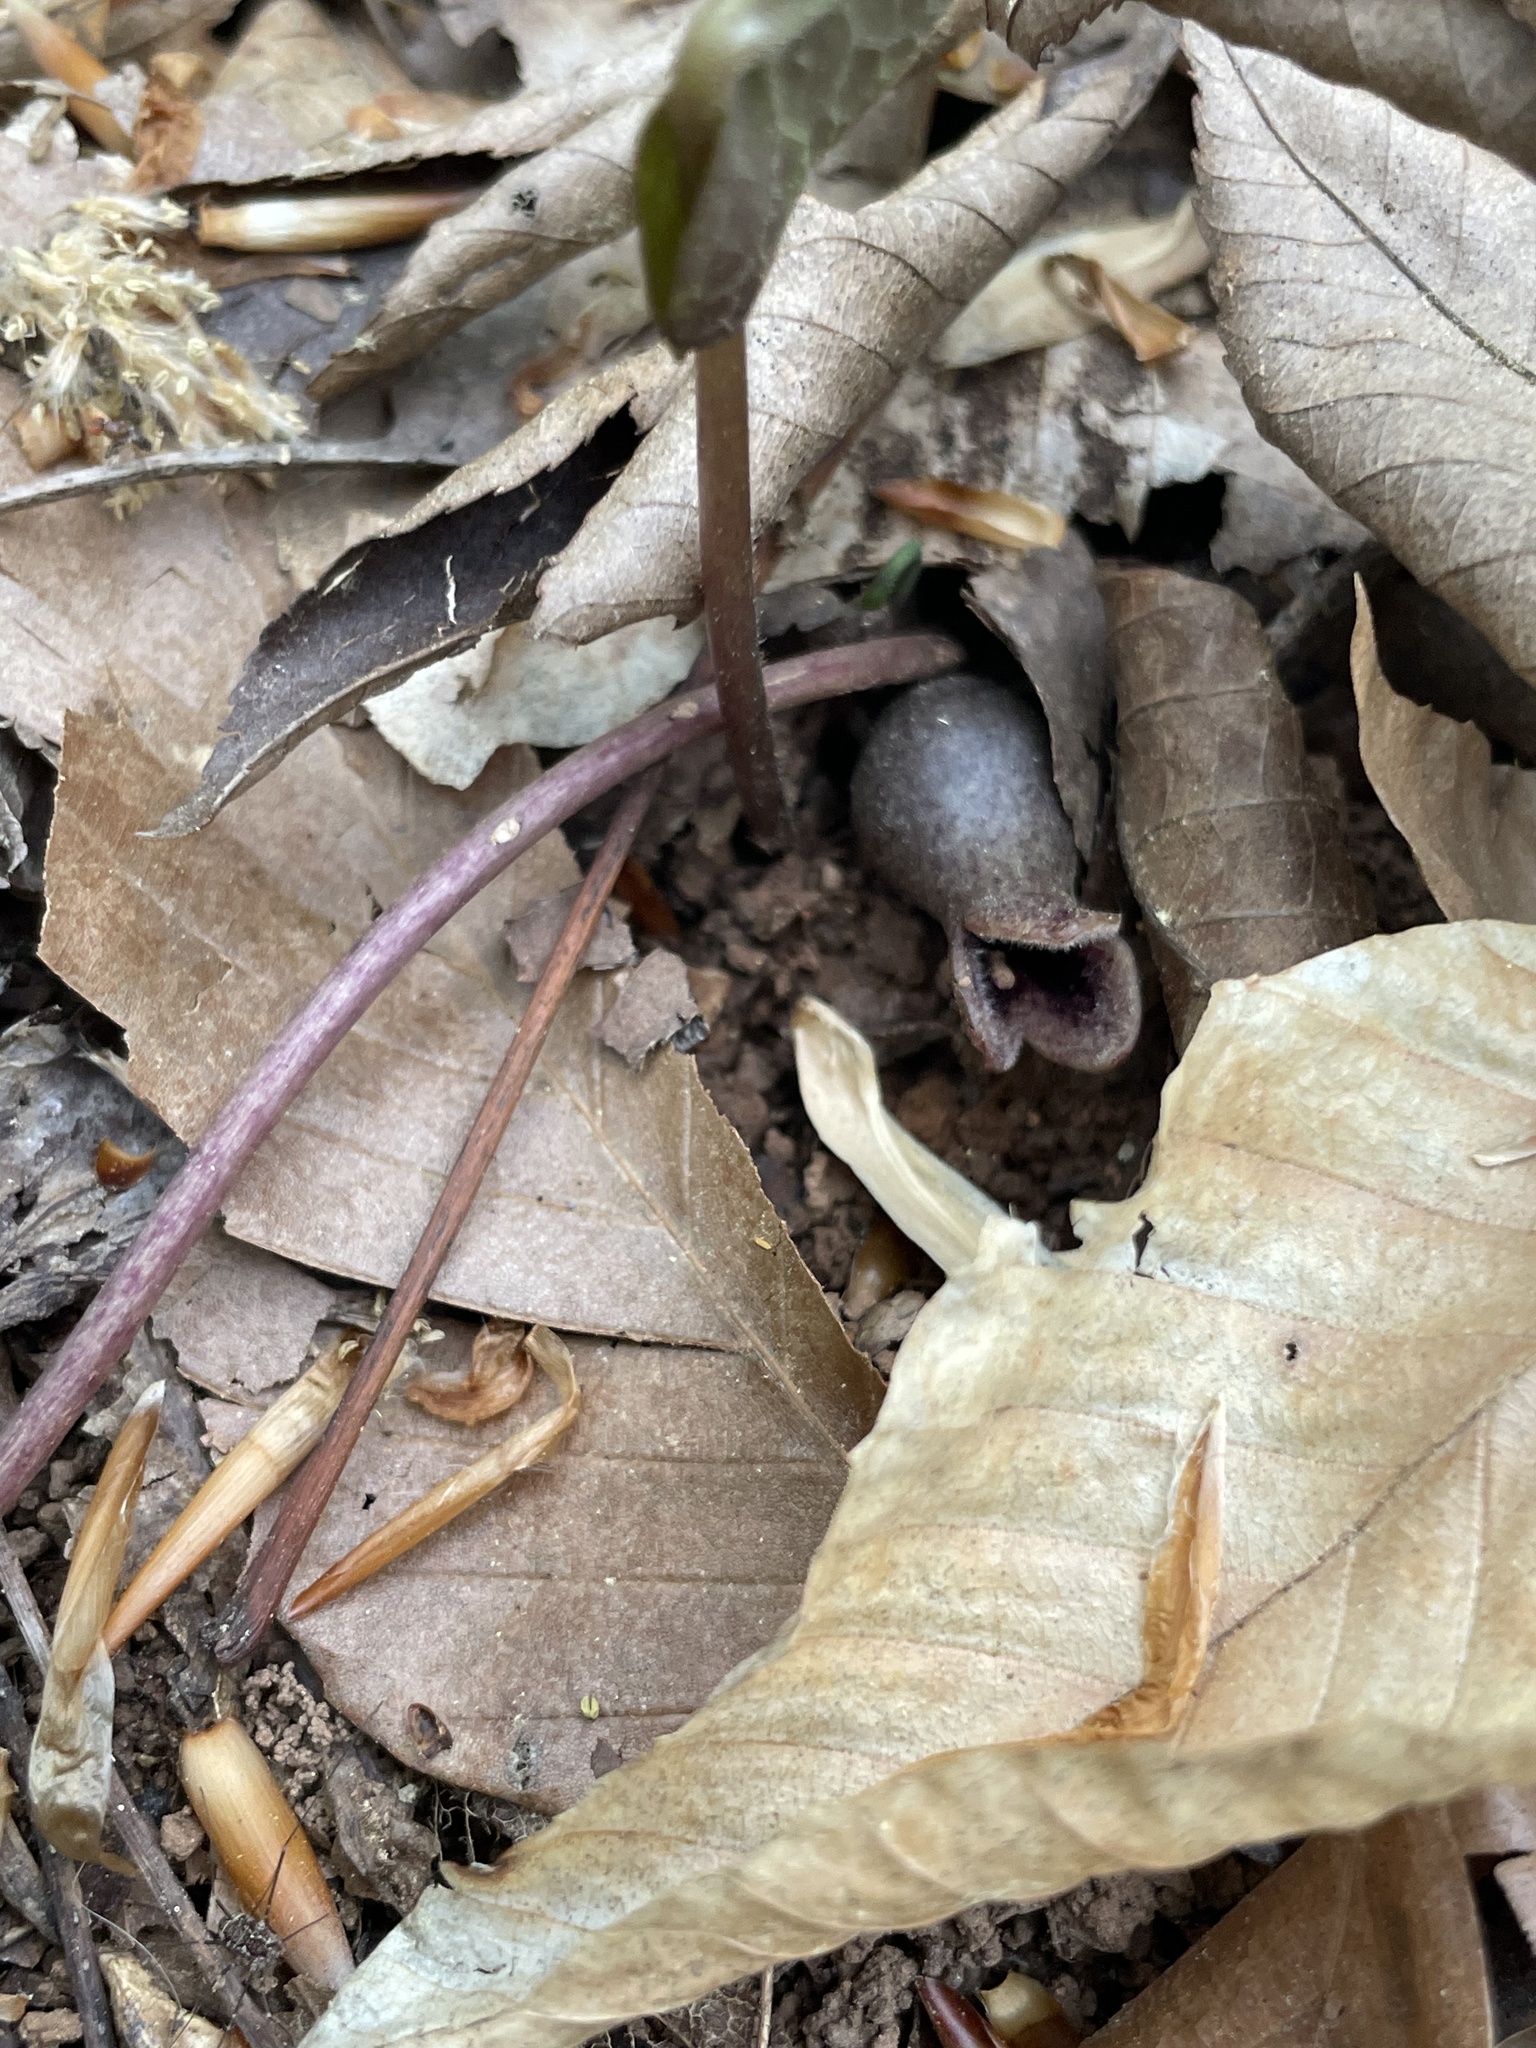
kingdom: Plantae
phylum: Tracheophyta
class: Magnoliopsida
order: Piperales
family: Aristolochiaceae
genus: Hexastylis
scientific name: Hexastylis arifolia
